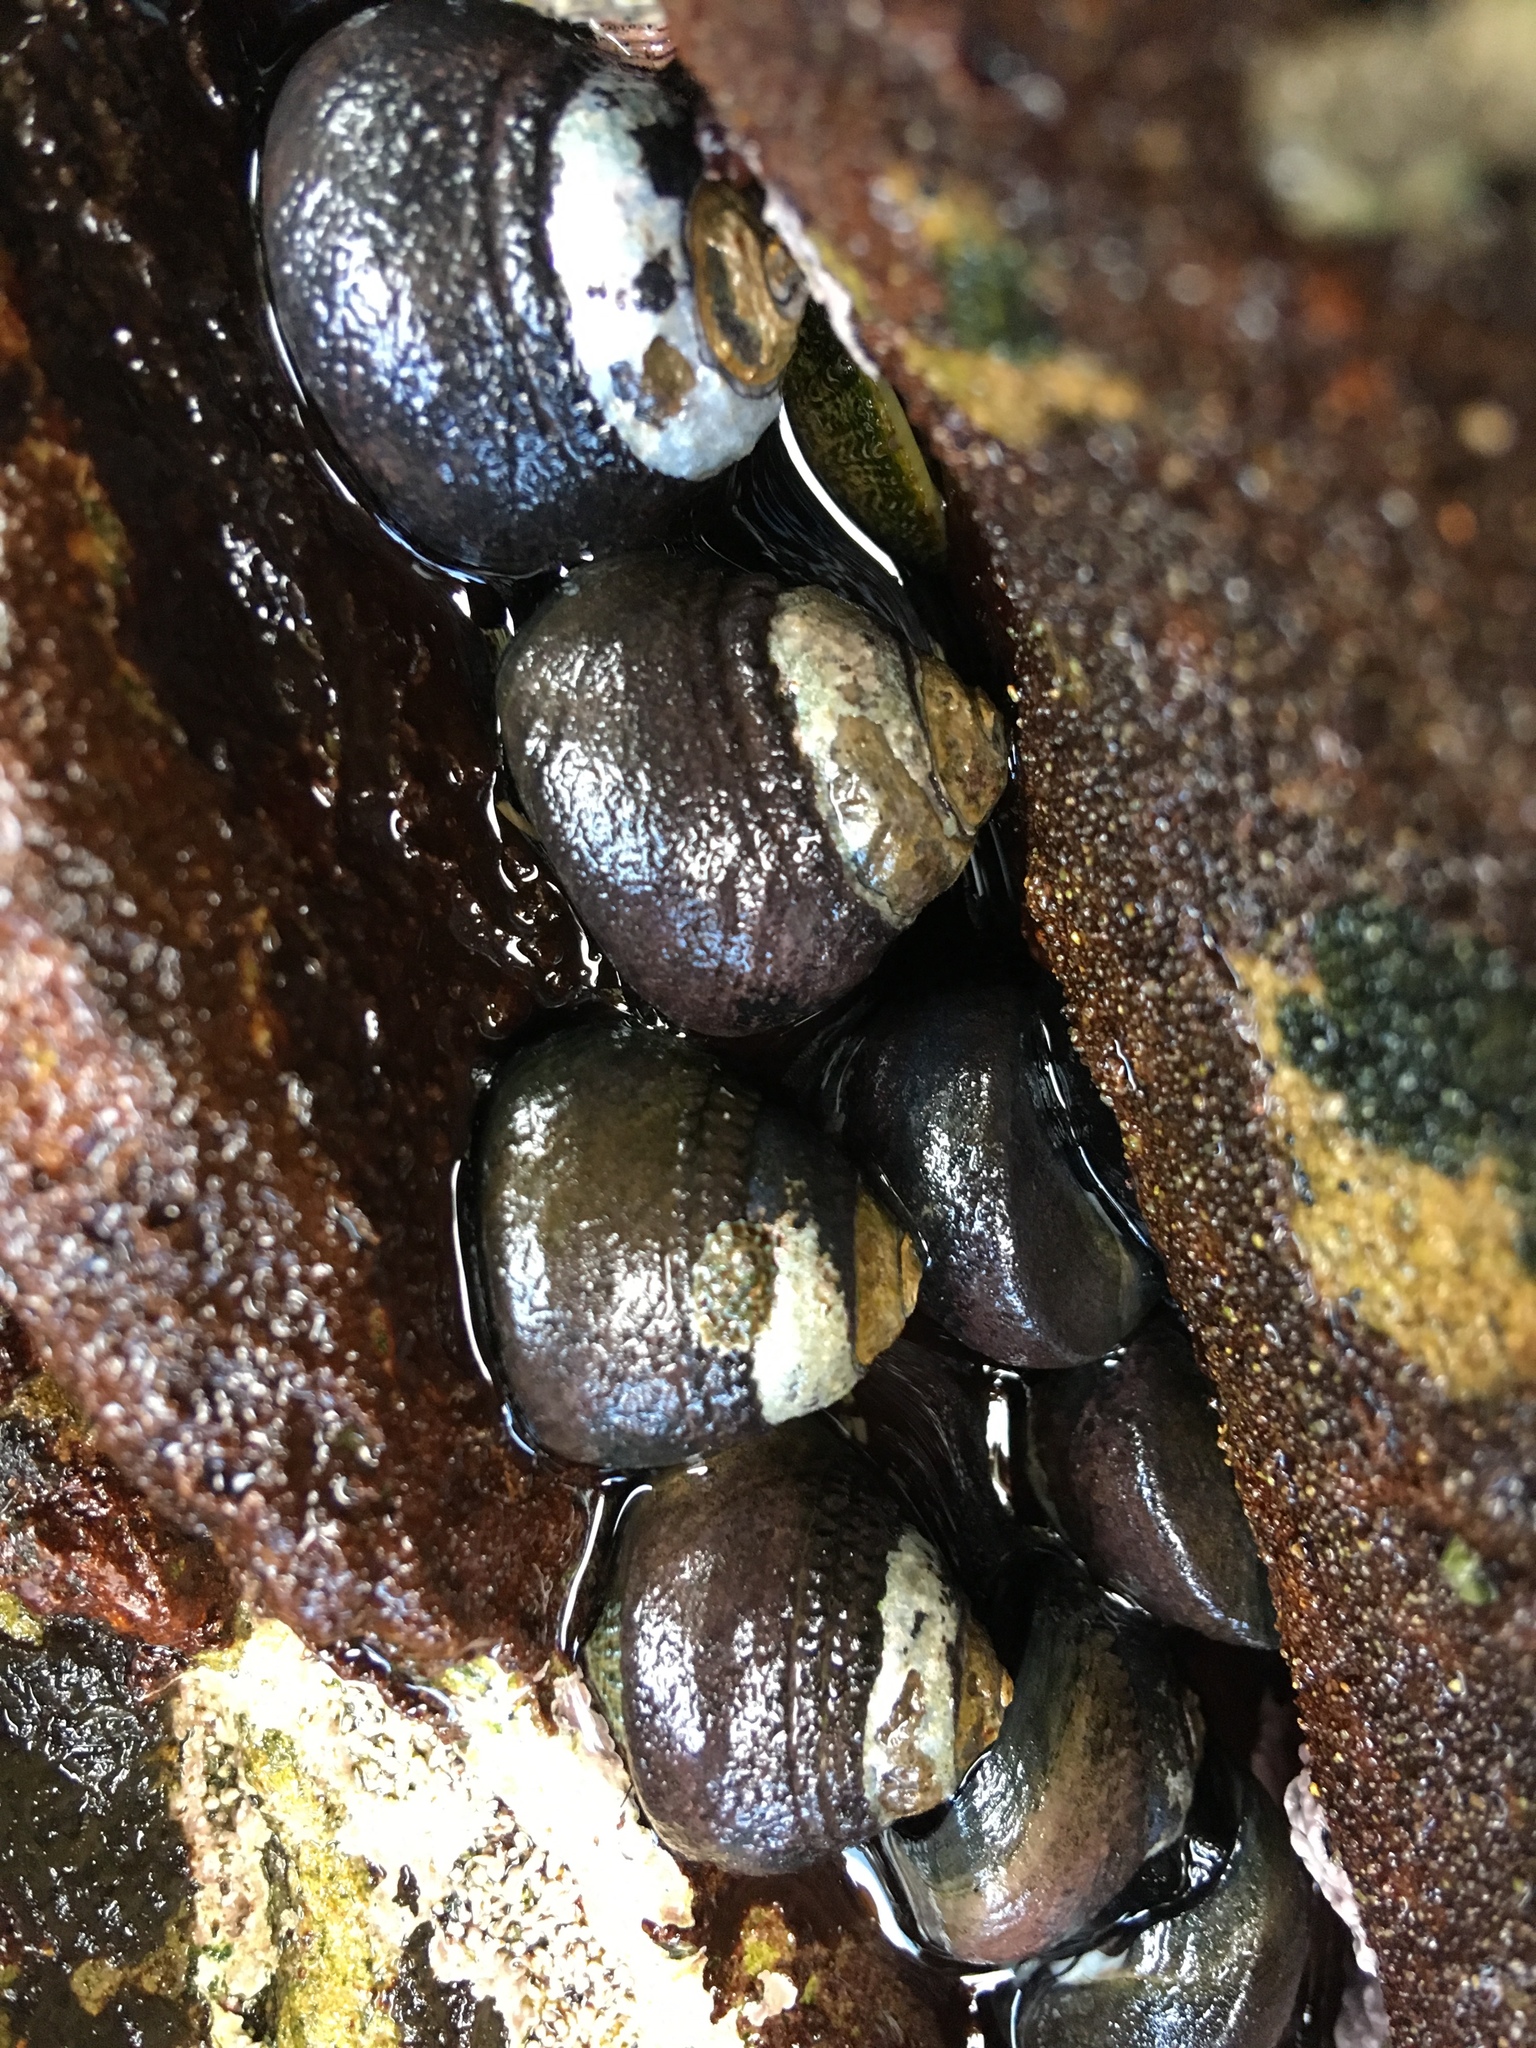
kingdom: Animalia
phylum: Mollusca
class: Gastropoda
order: Trochida
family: Tegulidae
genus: Tegula
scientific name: Tegula funebralis
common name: Black tegula
